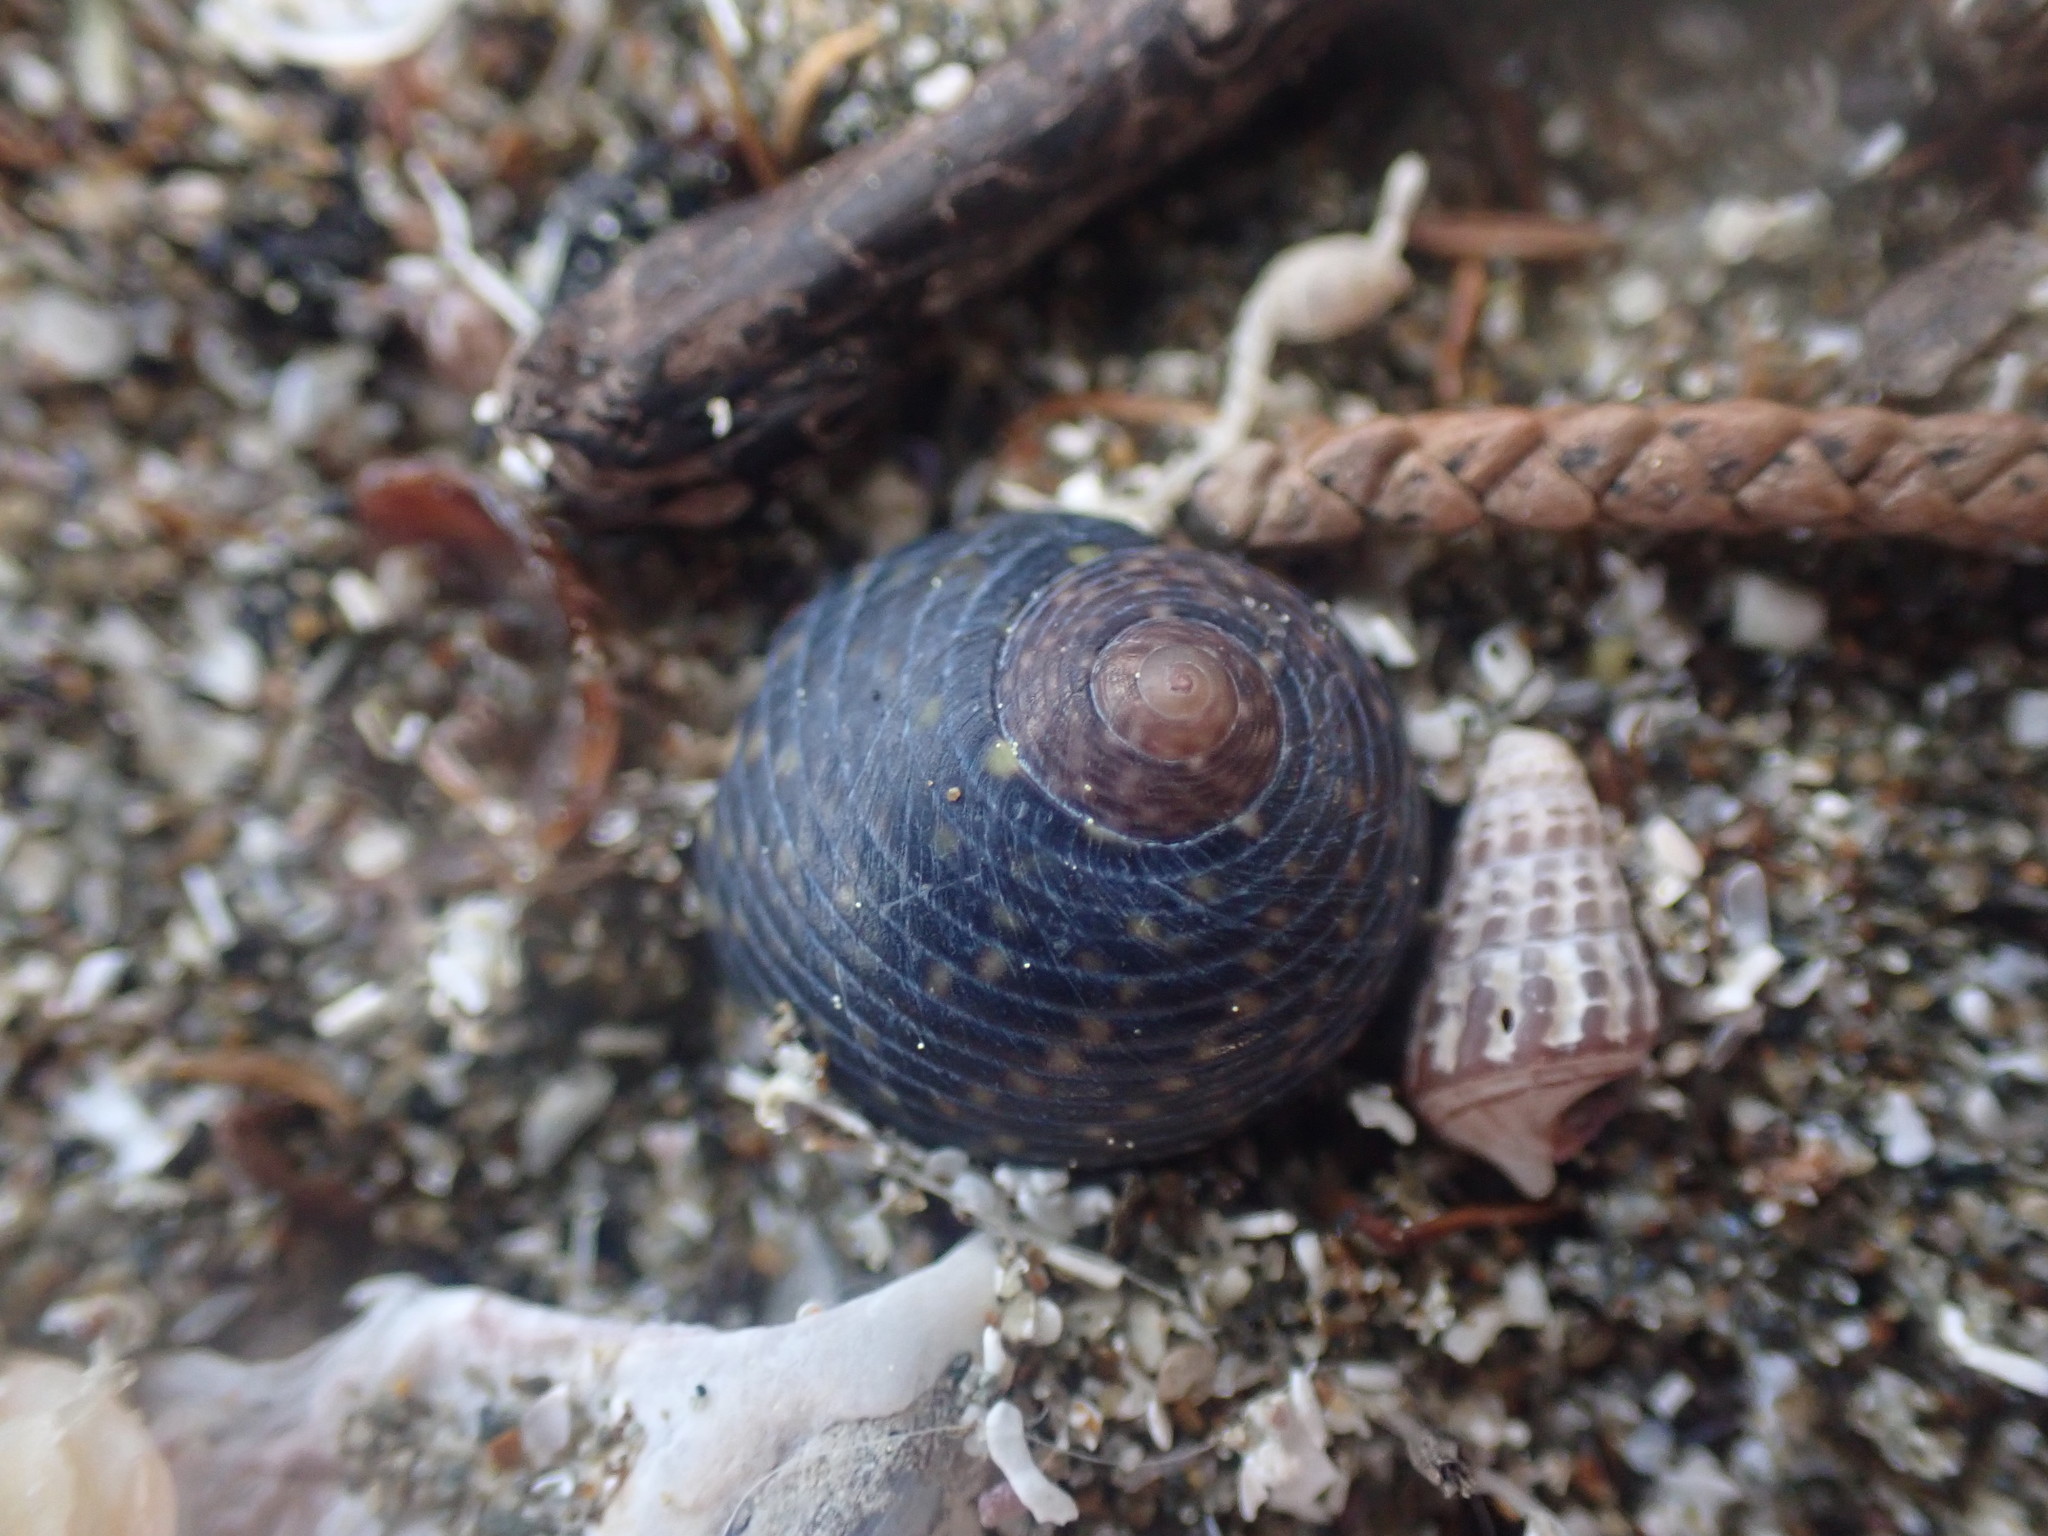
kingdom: Animalia
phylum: Mollusca
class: Gastropoda
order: Trochida
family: Trochidae
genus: Diloma
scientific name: Diloma zelandicum
